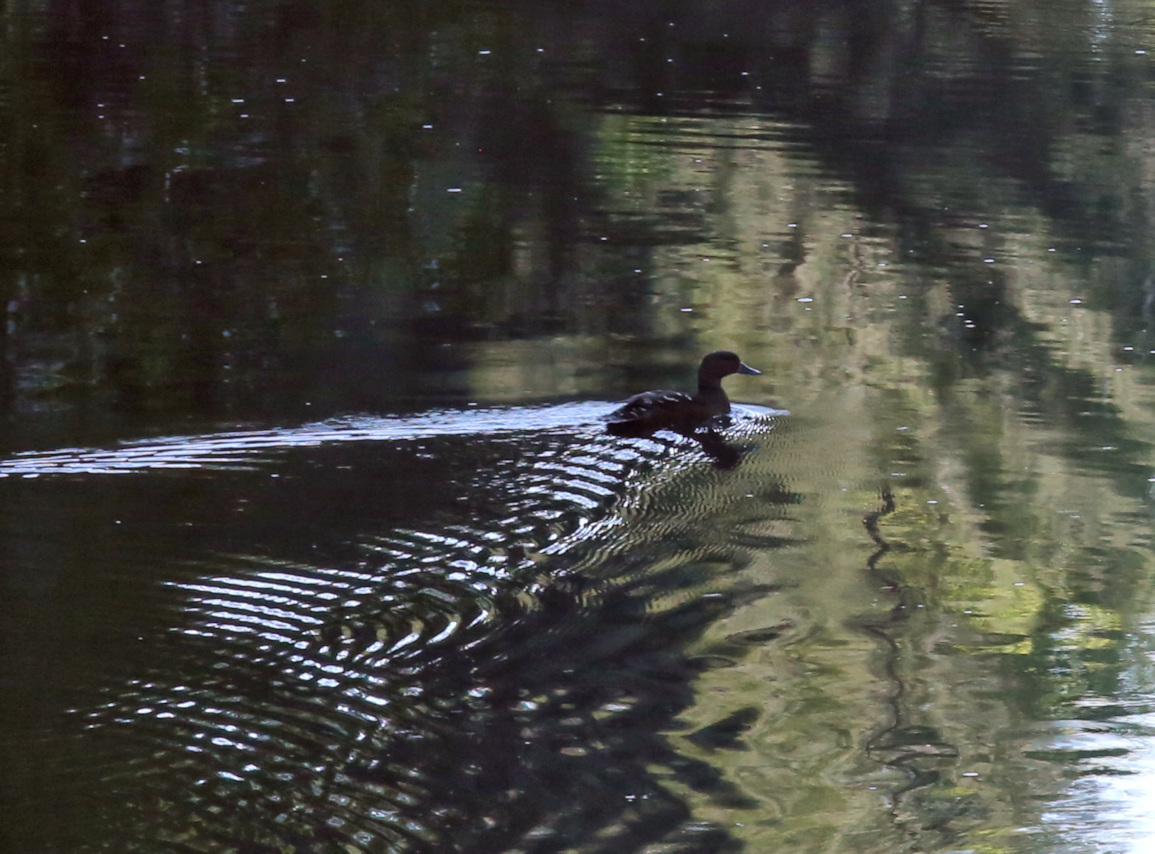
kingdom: Animalia
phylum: Chordata
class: Aves
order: Anseriformes
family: Anatidae
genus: Anas
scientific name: Anas sparsa
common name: African black duck
